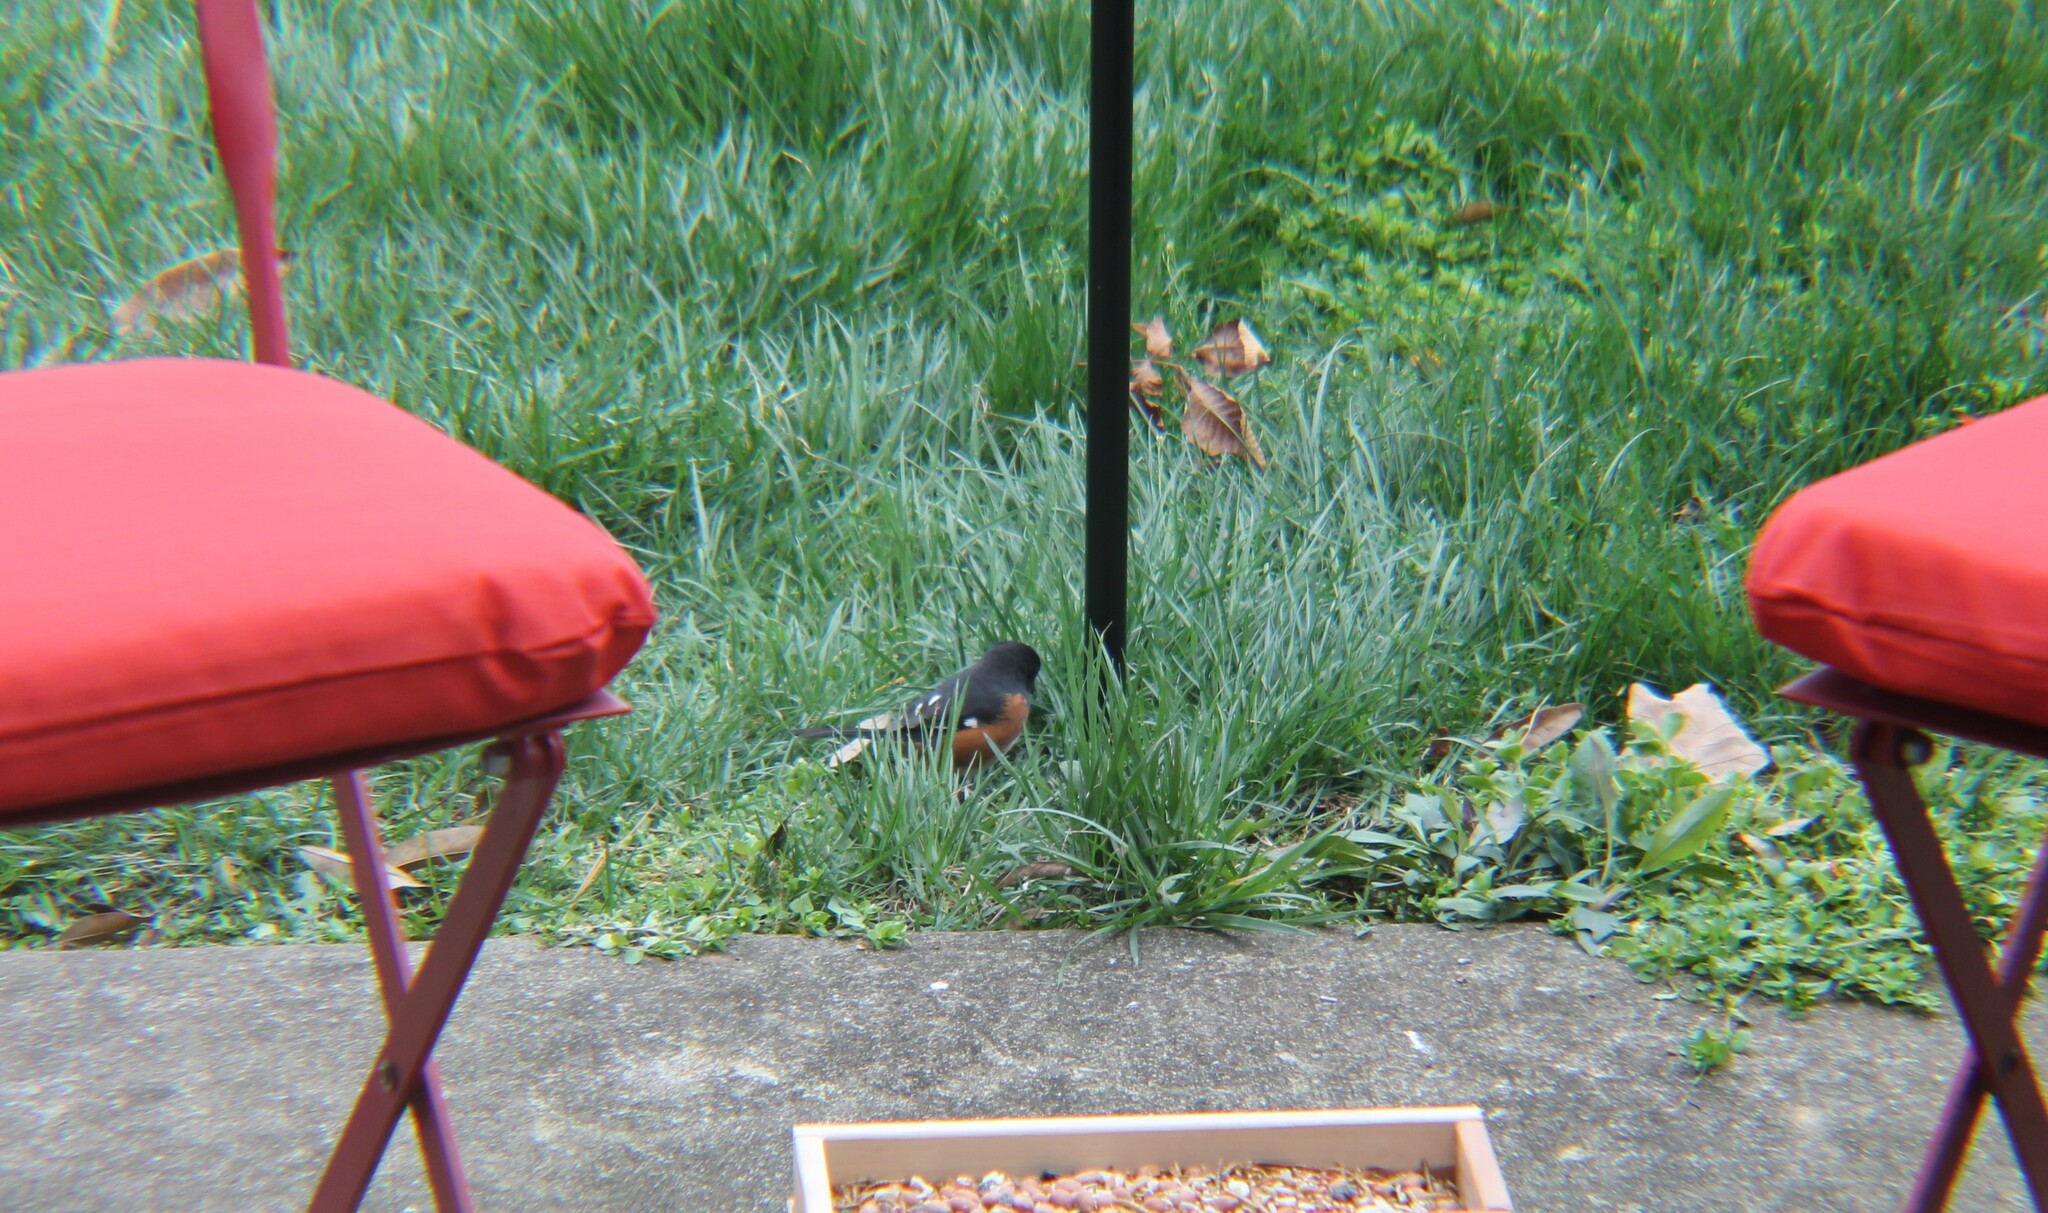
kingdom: Animalia
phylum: Chordata
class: Aves
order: Passeriformes
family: Passerellidae
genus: Pipilo
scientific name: Pipilo erythrophthalmus
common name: Eastern towhee
